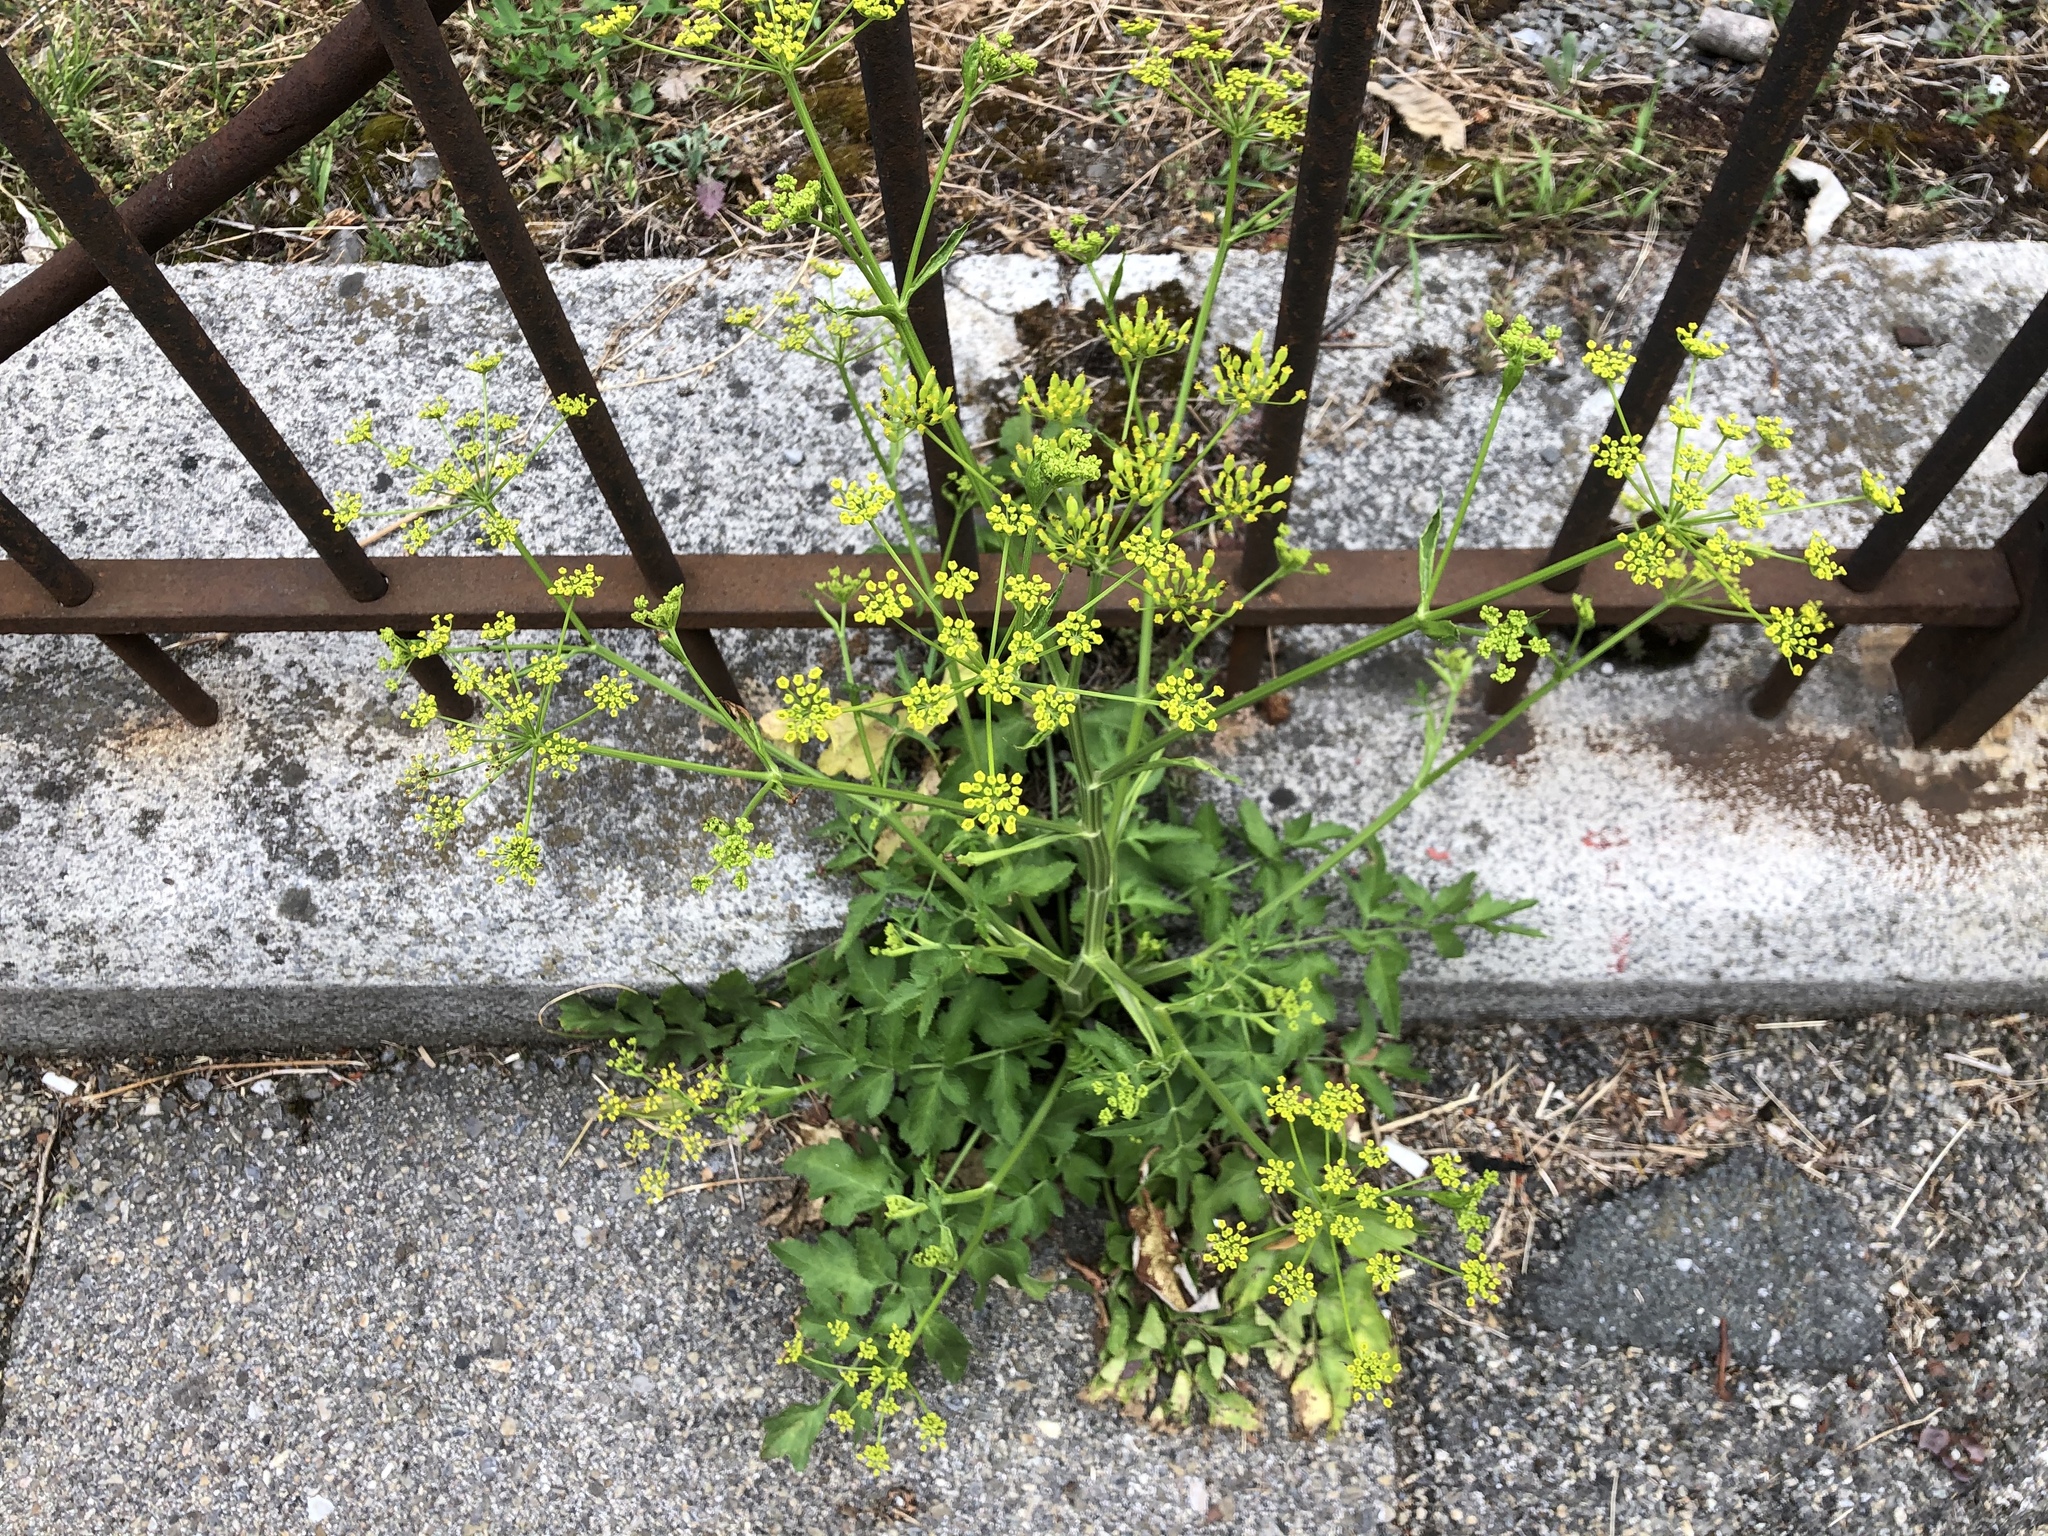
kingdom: Plantae
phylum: Tracheophyta
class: Magnoliopsida
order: Apiales
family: Apiaceae
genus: Pastinaca
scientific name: Pastinaca sativa
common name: Wild parsnip
